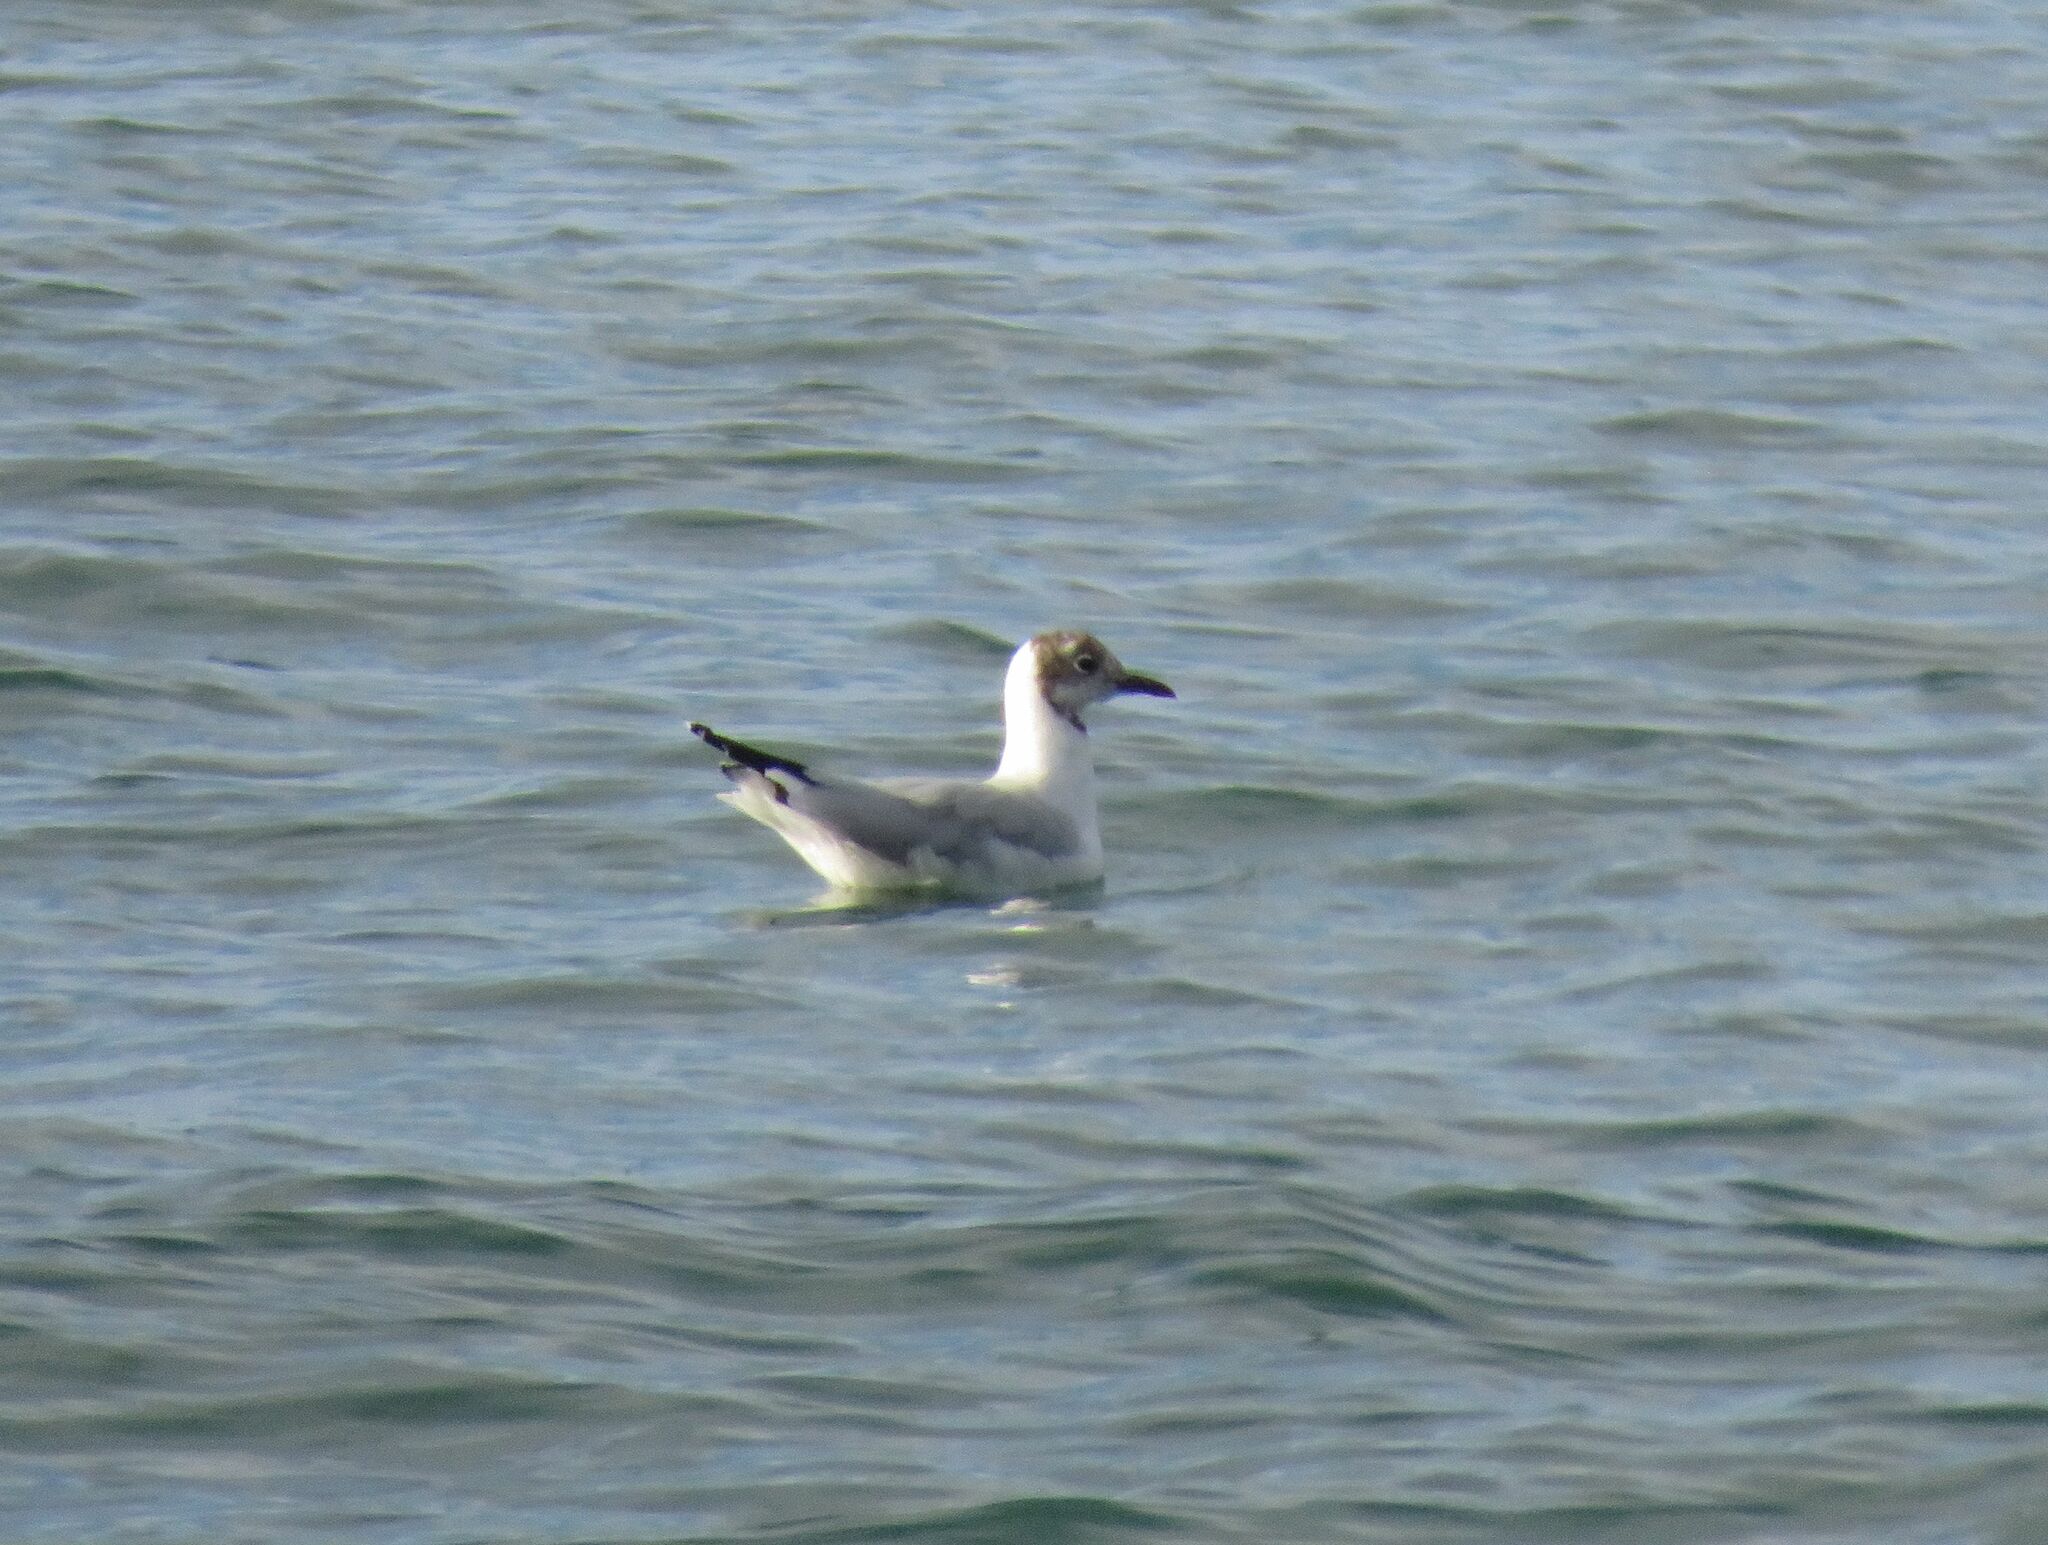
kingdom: Animalia
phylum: Chordata
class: Aves
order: Charadriiformes
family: Laridae
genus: Chroicocephalus
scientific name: Chroicocephalus maculipennis
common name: Brown-hooded gull
